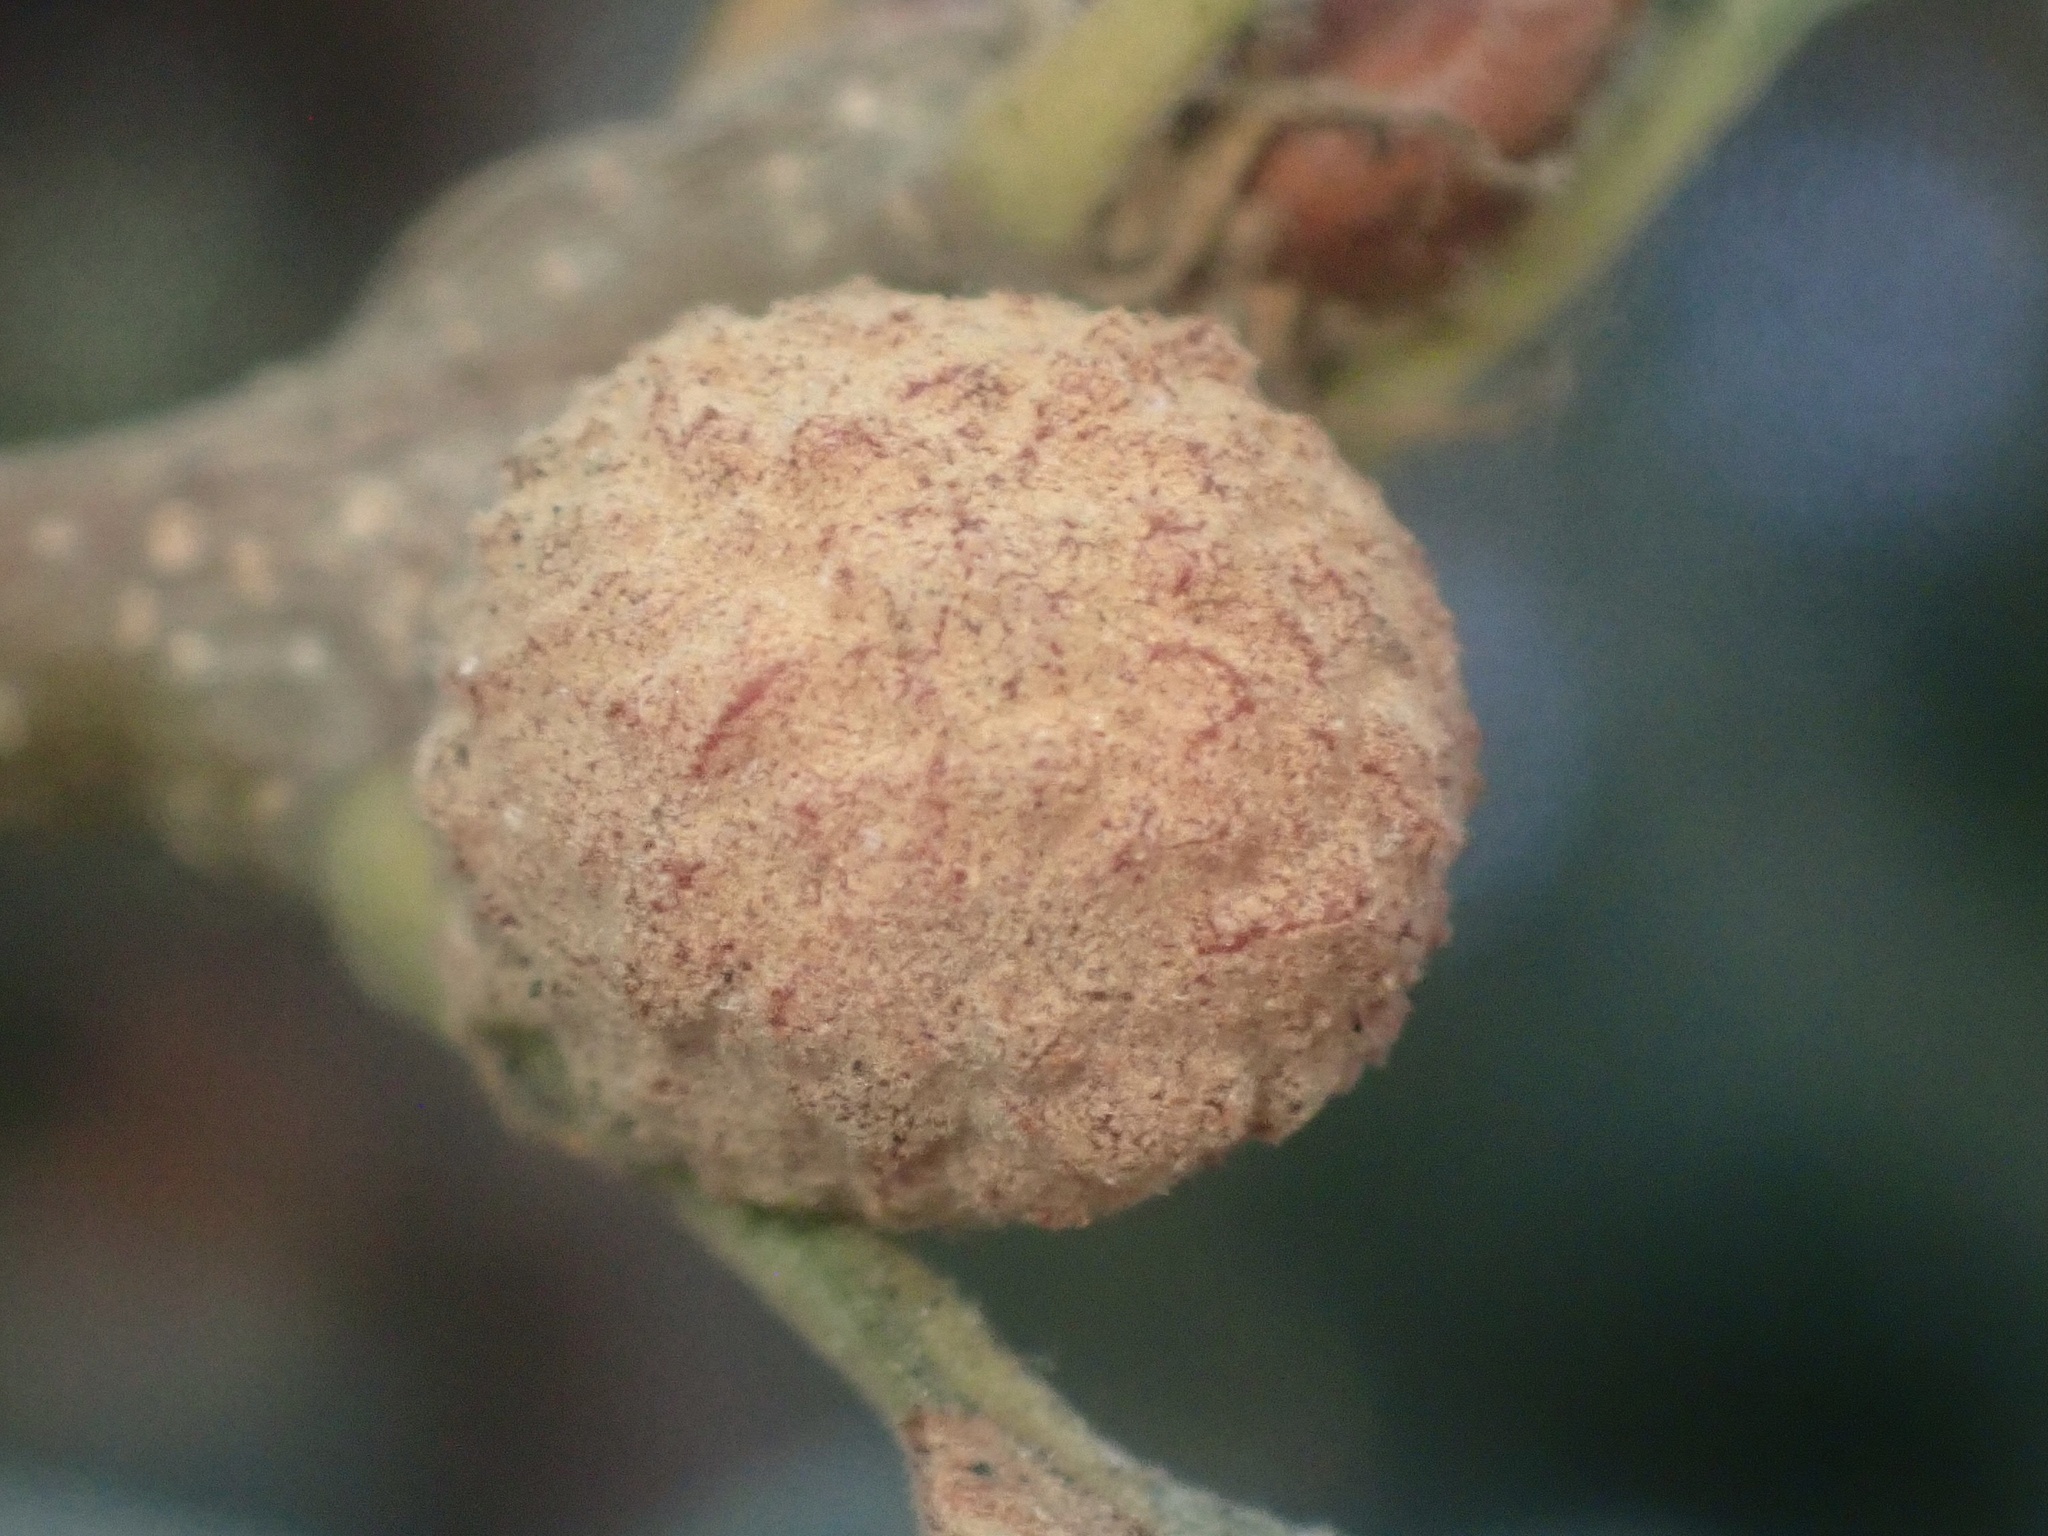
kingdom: Animalia
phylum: Arthropoda
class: Insecta
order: Hymenoptera
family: Cynipidae
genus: Cynips
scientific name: Cynips conspicua
